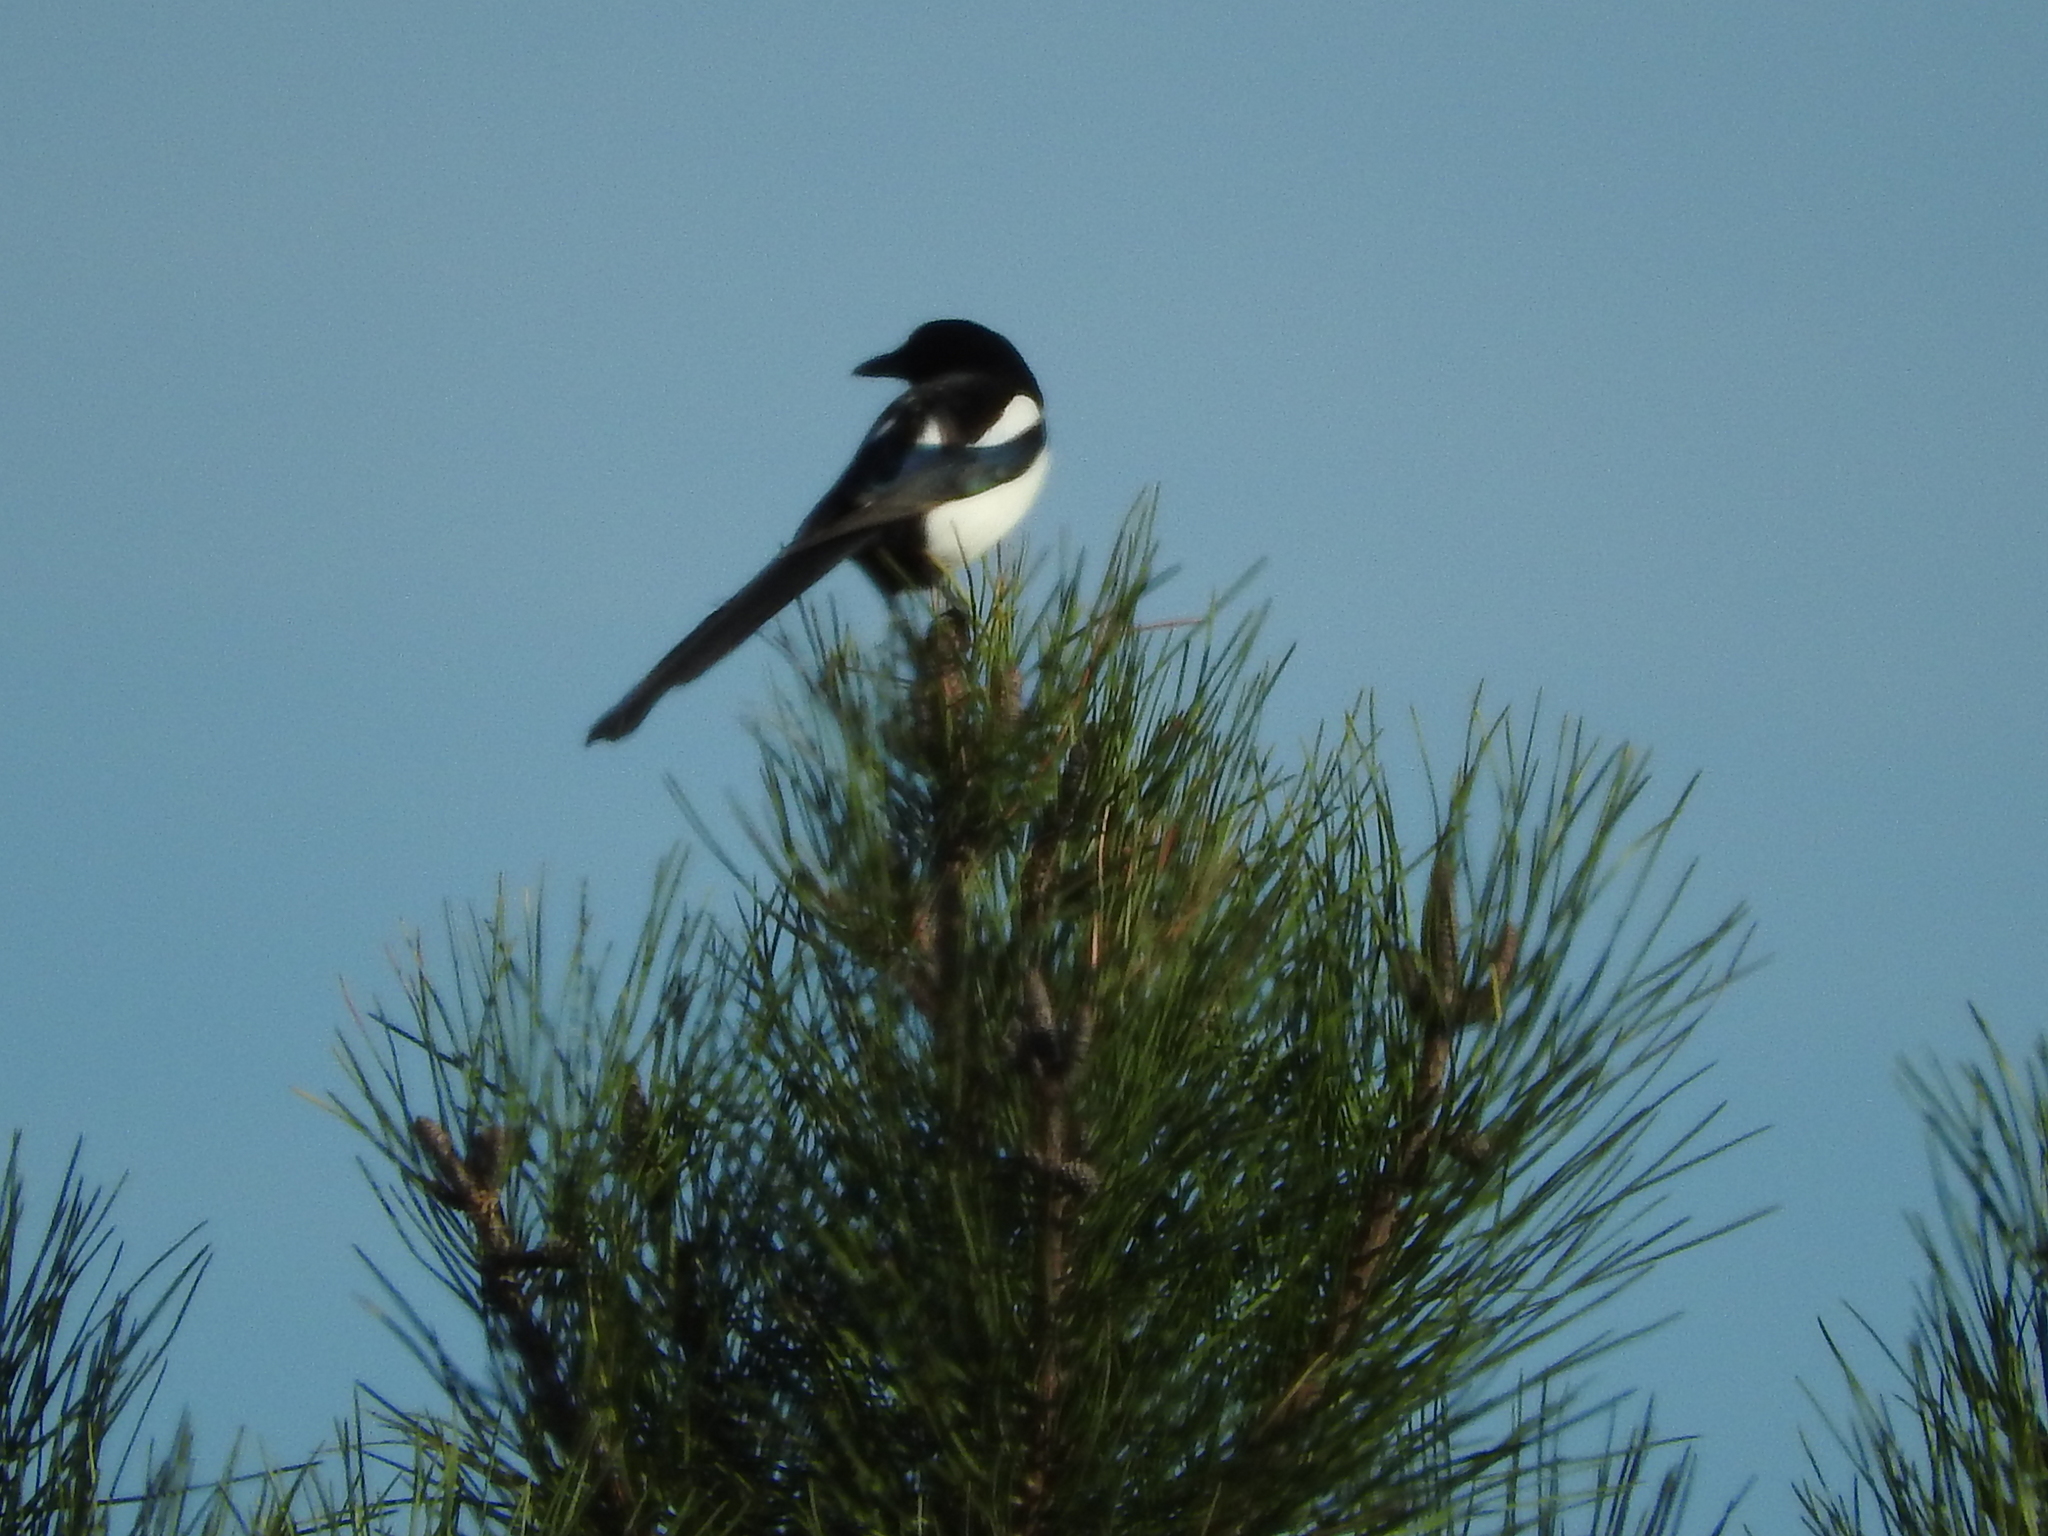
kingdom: Animalia
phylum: Chordata
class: Aves
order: Passeriformes
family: Corvidae
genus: Pica
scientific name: Pica pica
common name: Eurasian magpie
